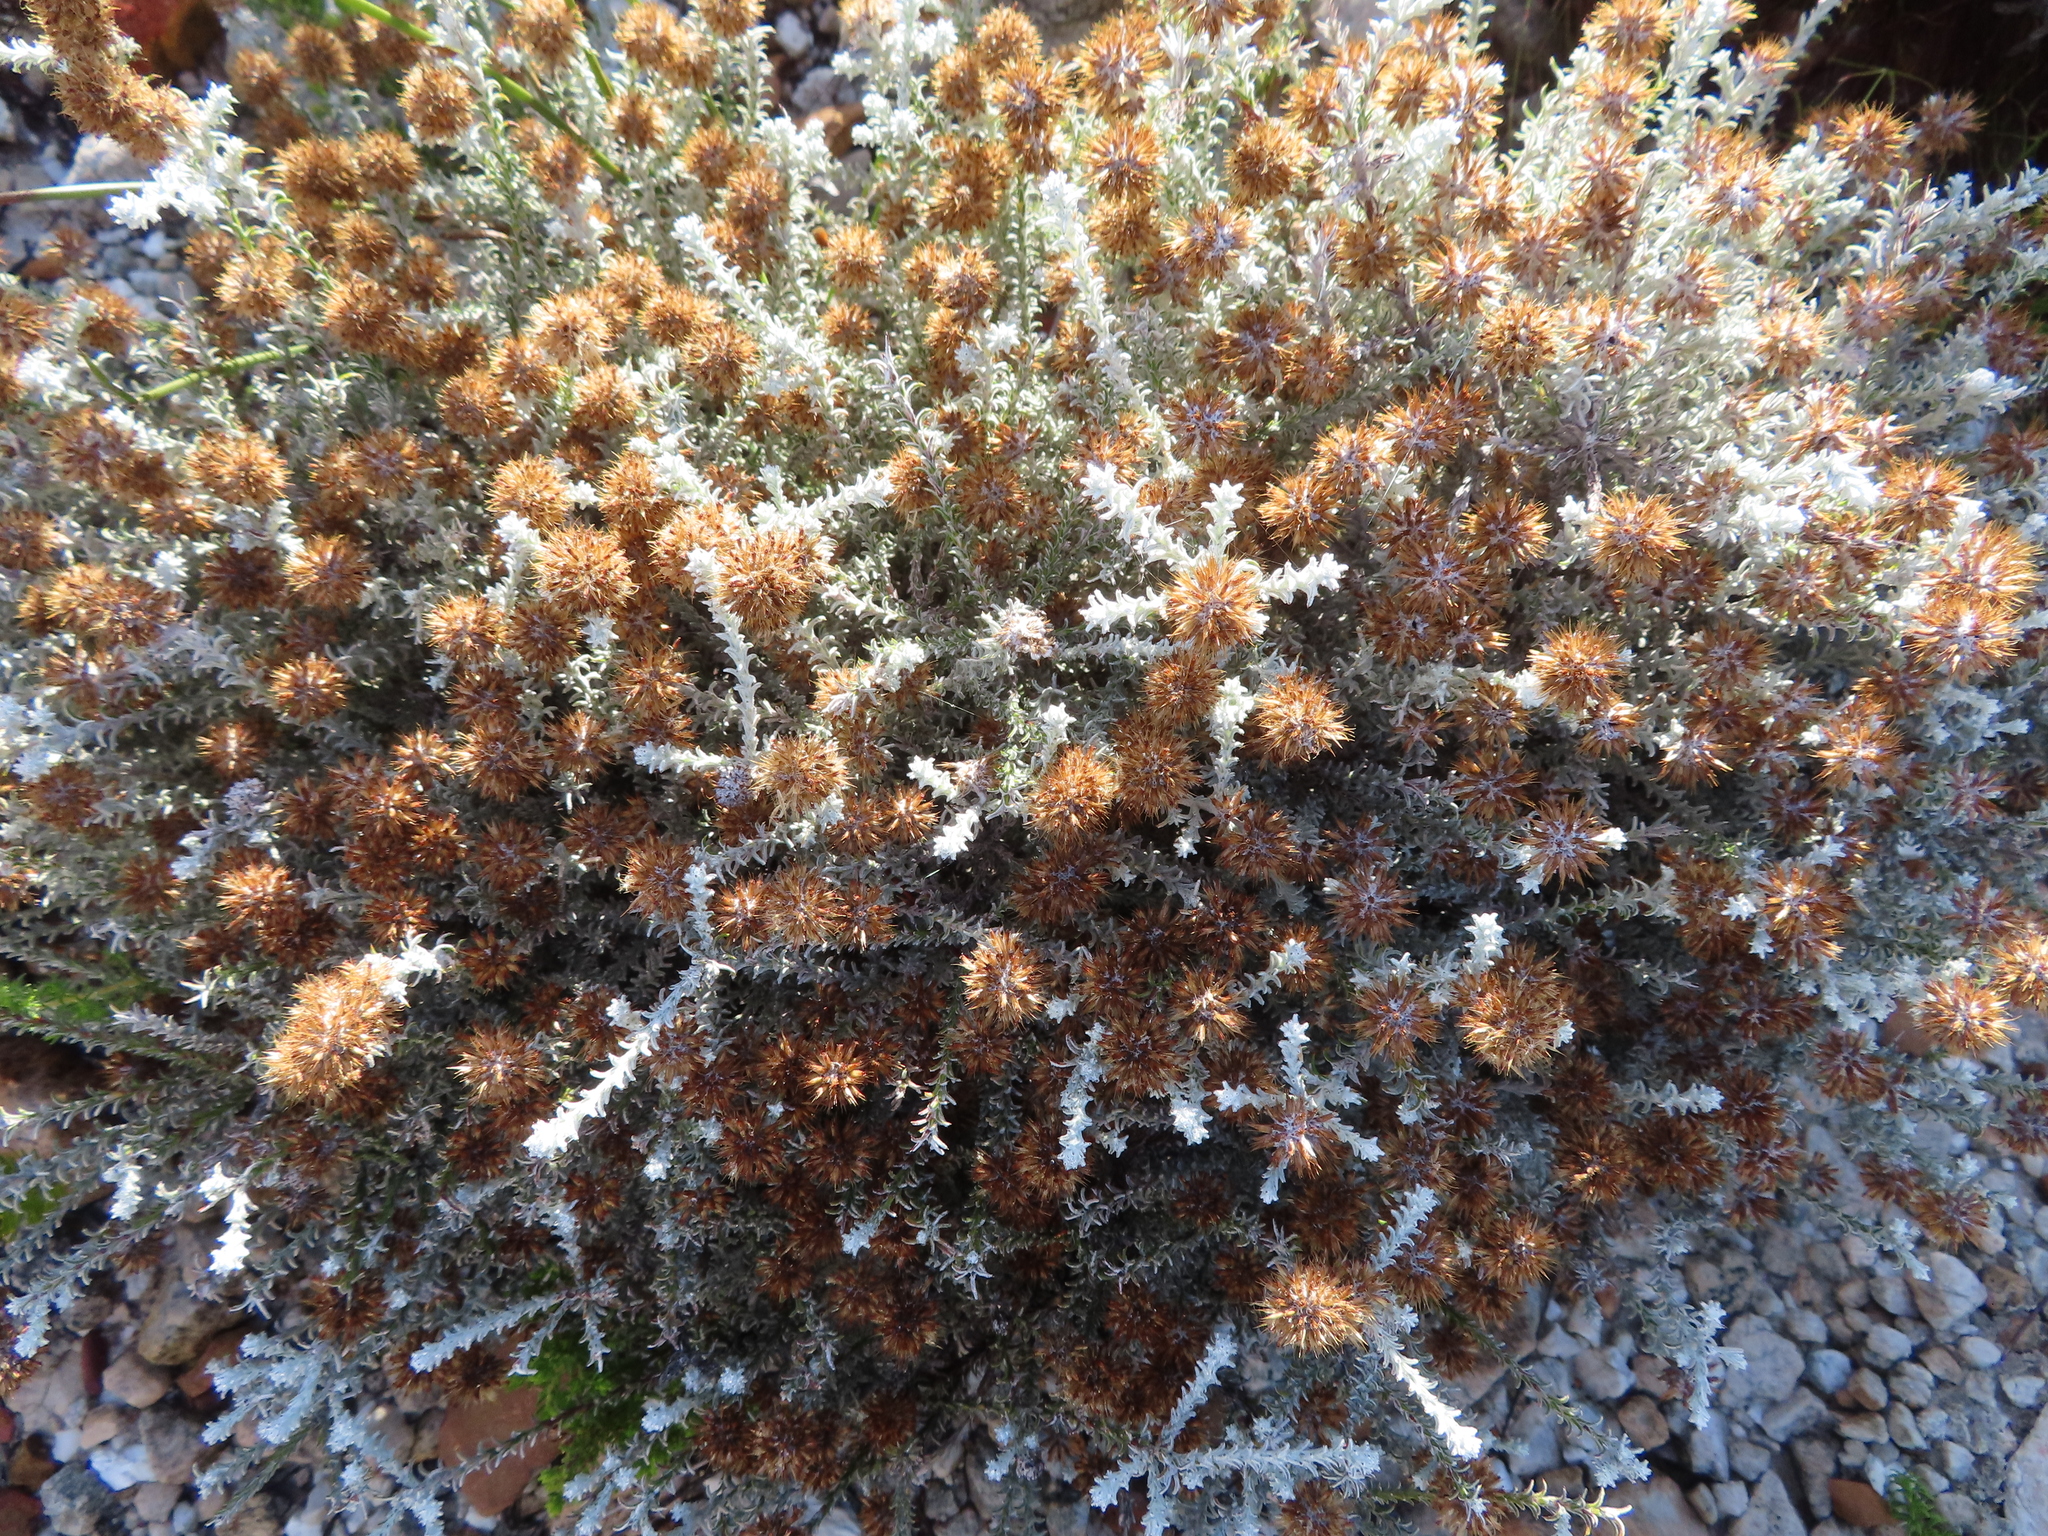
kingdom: Plantae
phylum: Tracheophyta
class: Magnoliopsida
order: Asterales
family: Asteraceae
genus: Seriphium
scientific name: Seriphium plumosum
